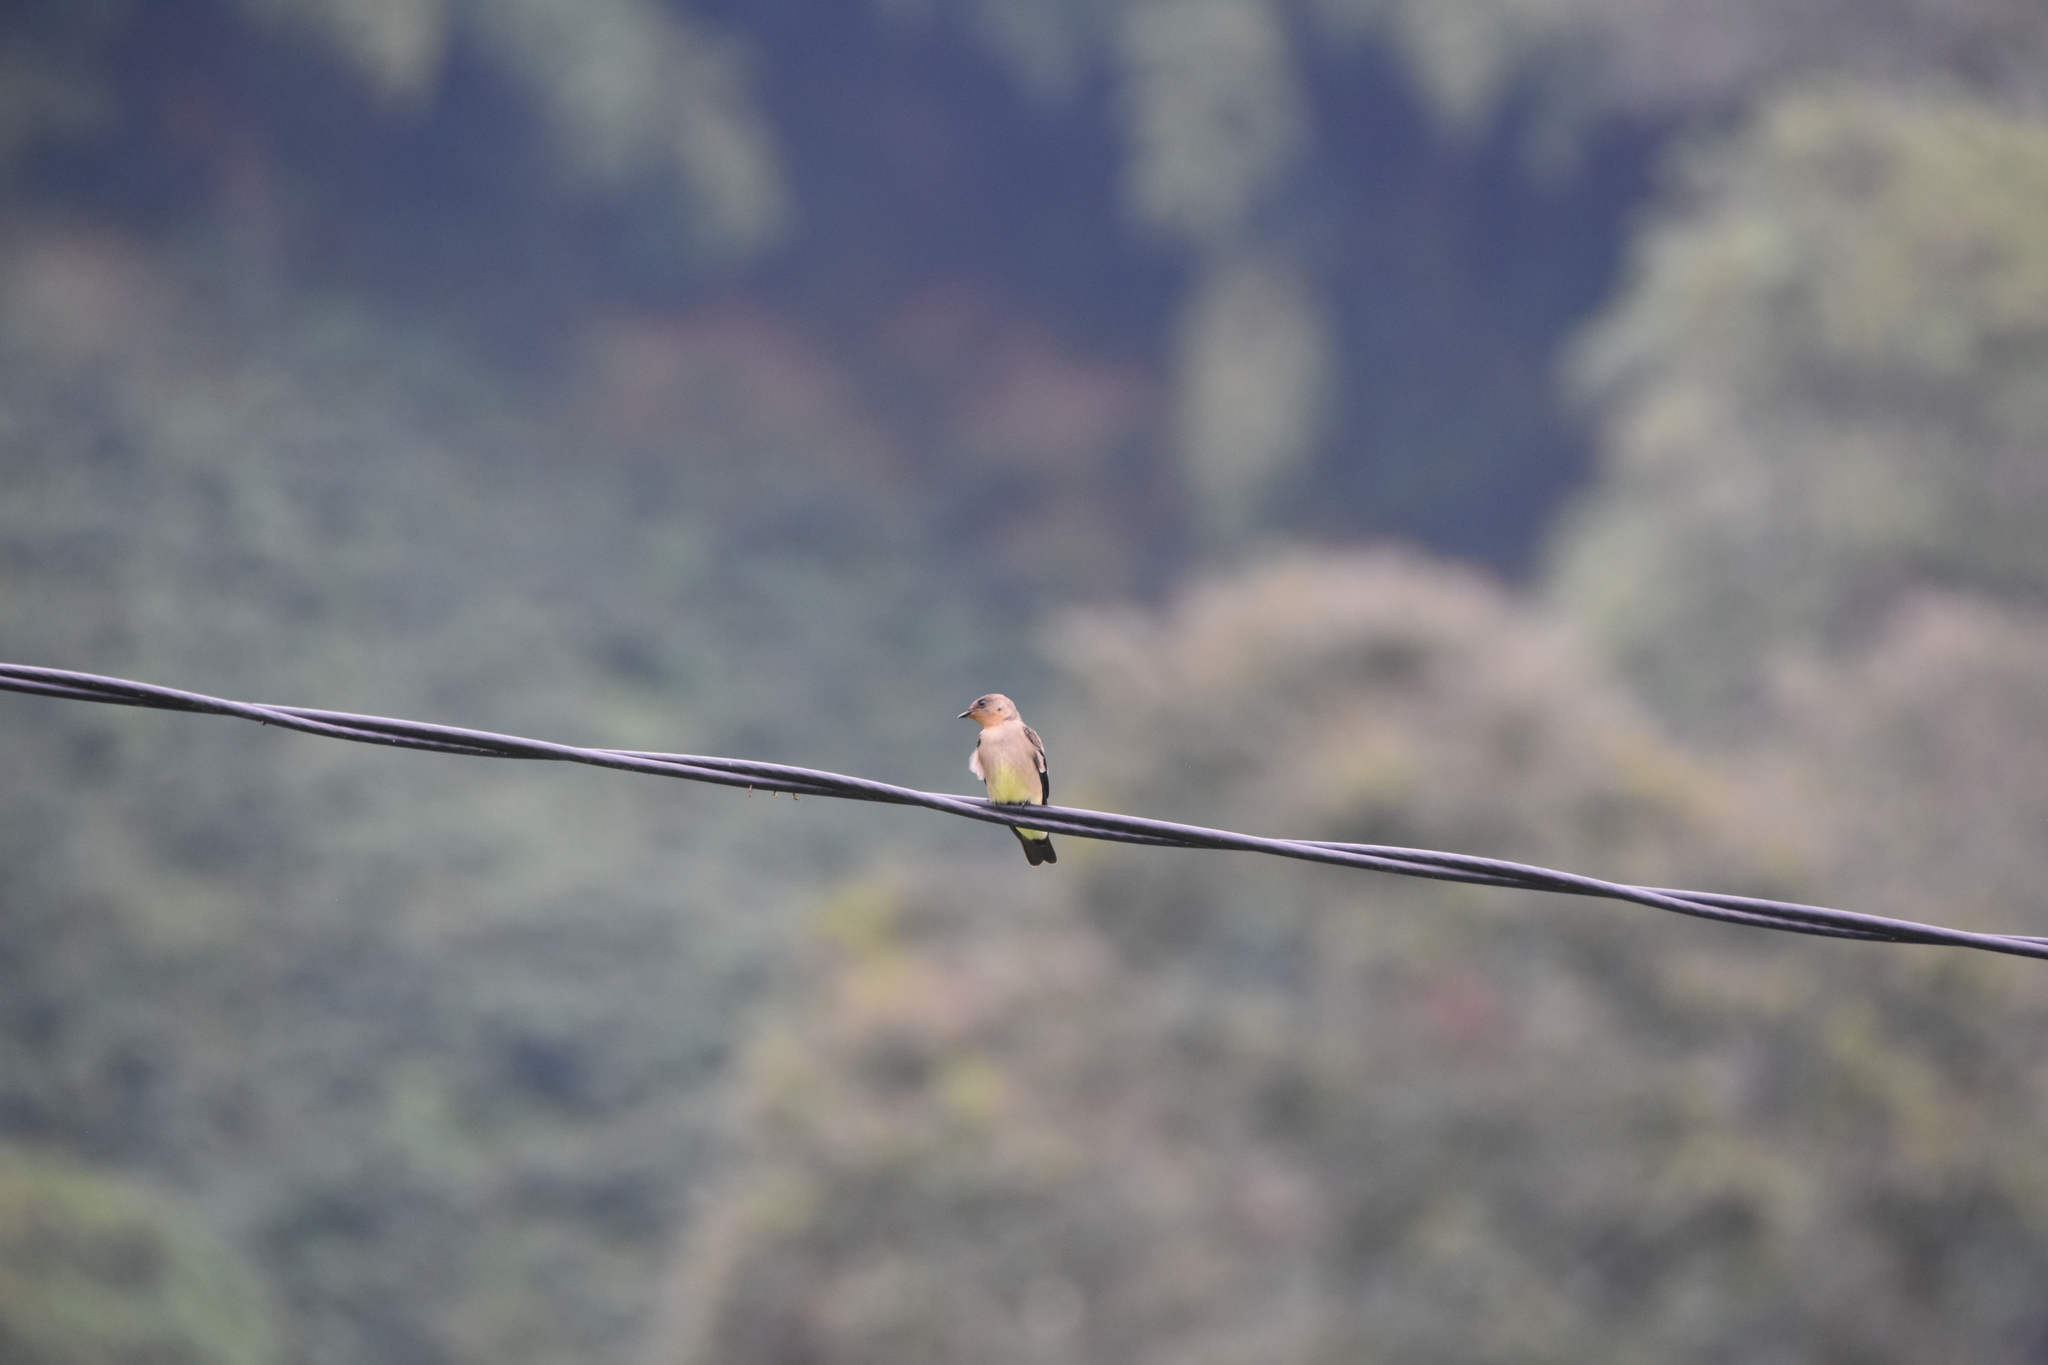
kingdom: Animalia
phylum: Chordata
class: Aves
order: Passeriformes
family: Hirundinidae
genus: Stelgidopteryx
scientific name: Stelgidopteryx ruficollis
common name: Southern rough-winged swallow
